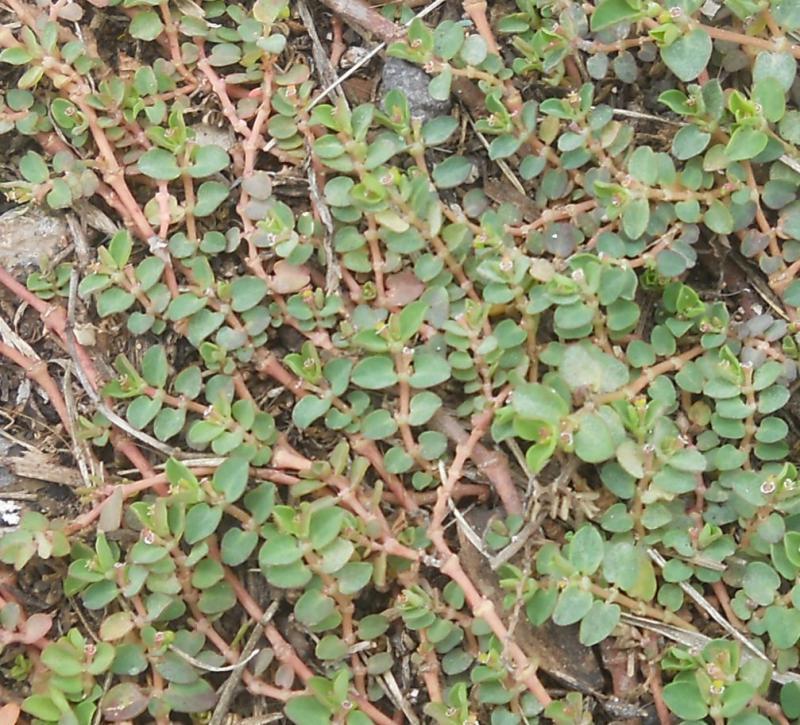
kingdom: Plantae
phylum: Tracheophyta
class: Magnoliopsida
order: Malpighiales
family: Euphorbiaceae
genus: Euphorbia
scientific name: Euphorbia serpens
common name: Matted sandmat
